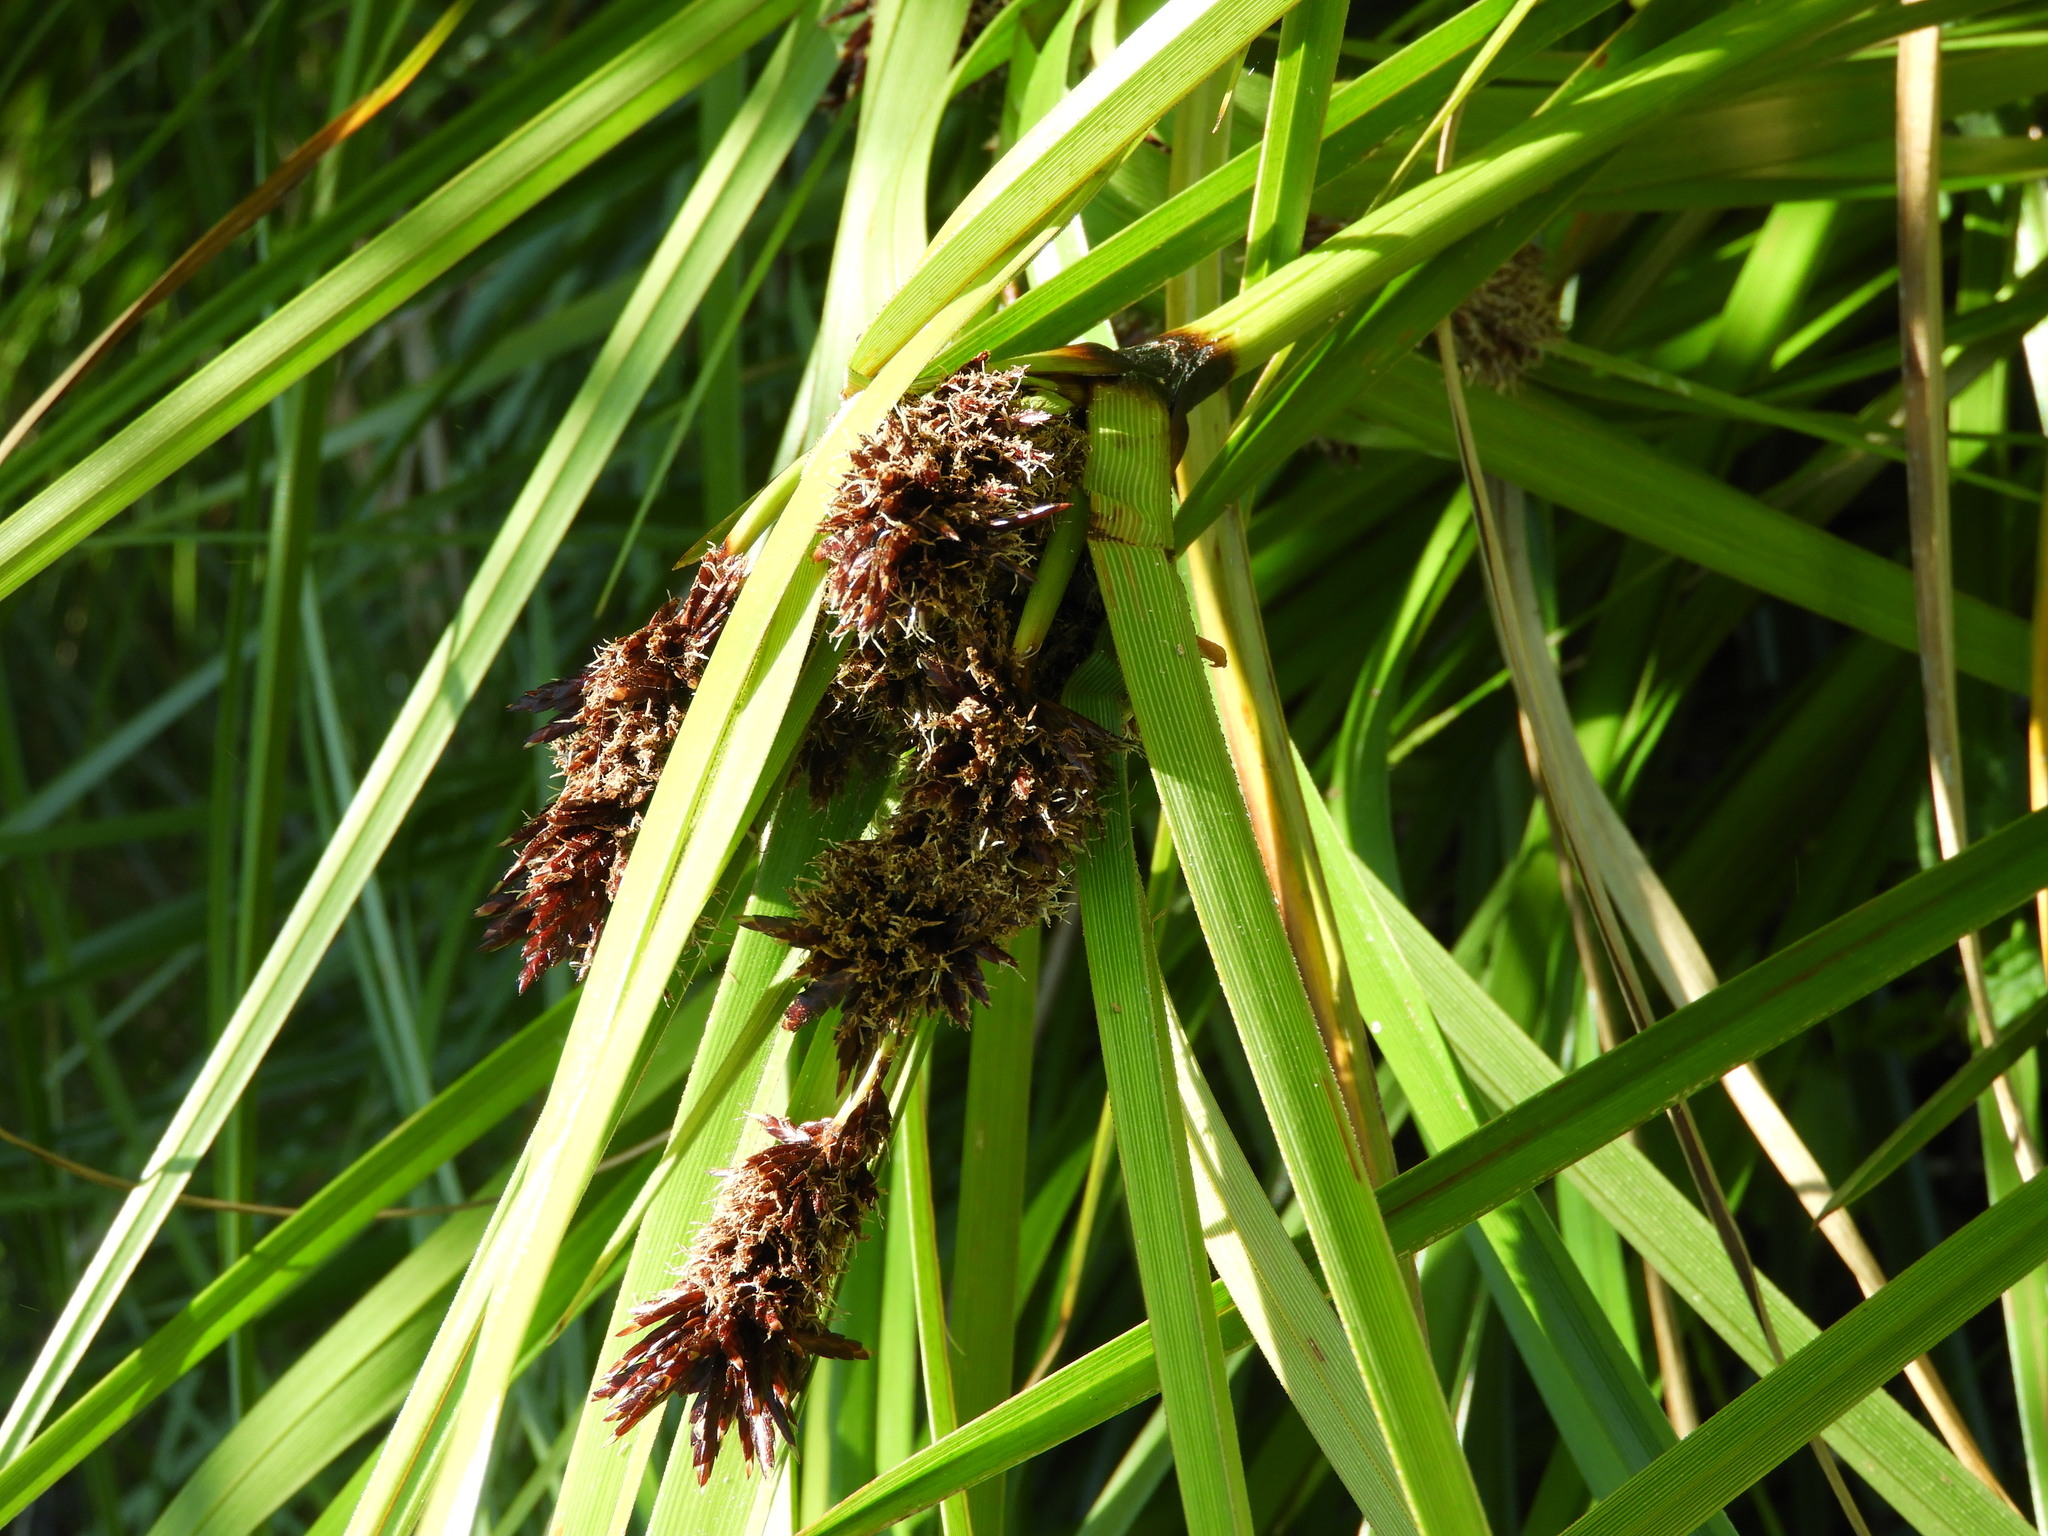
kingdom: Plantae
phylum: Tracheophyta
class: Liliopsida
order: Poales
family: Cyperaceae
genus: Cyperus
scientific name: Cyperus ustulatus
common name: Giant umbrella-sedge
